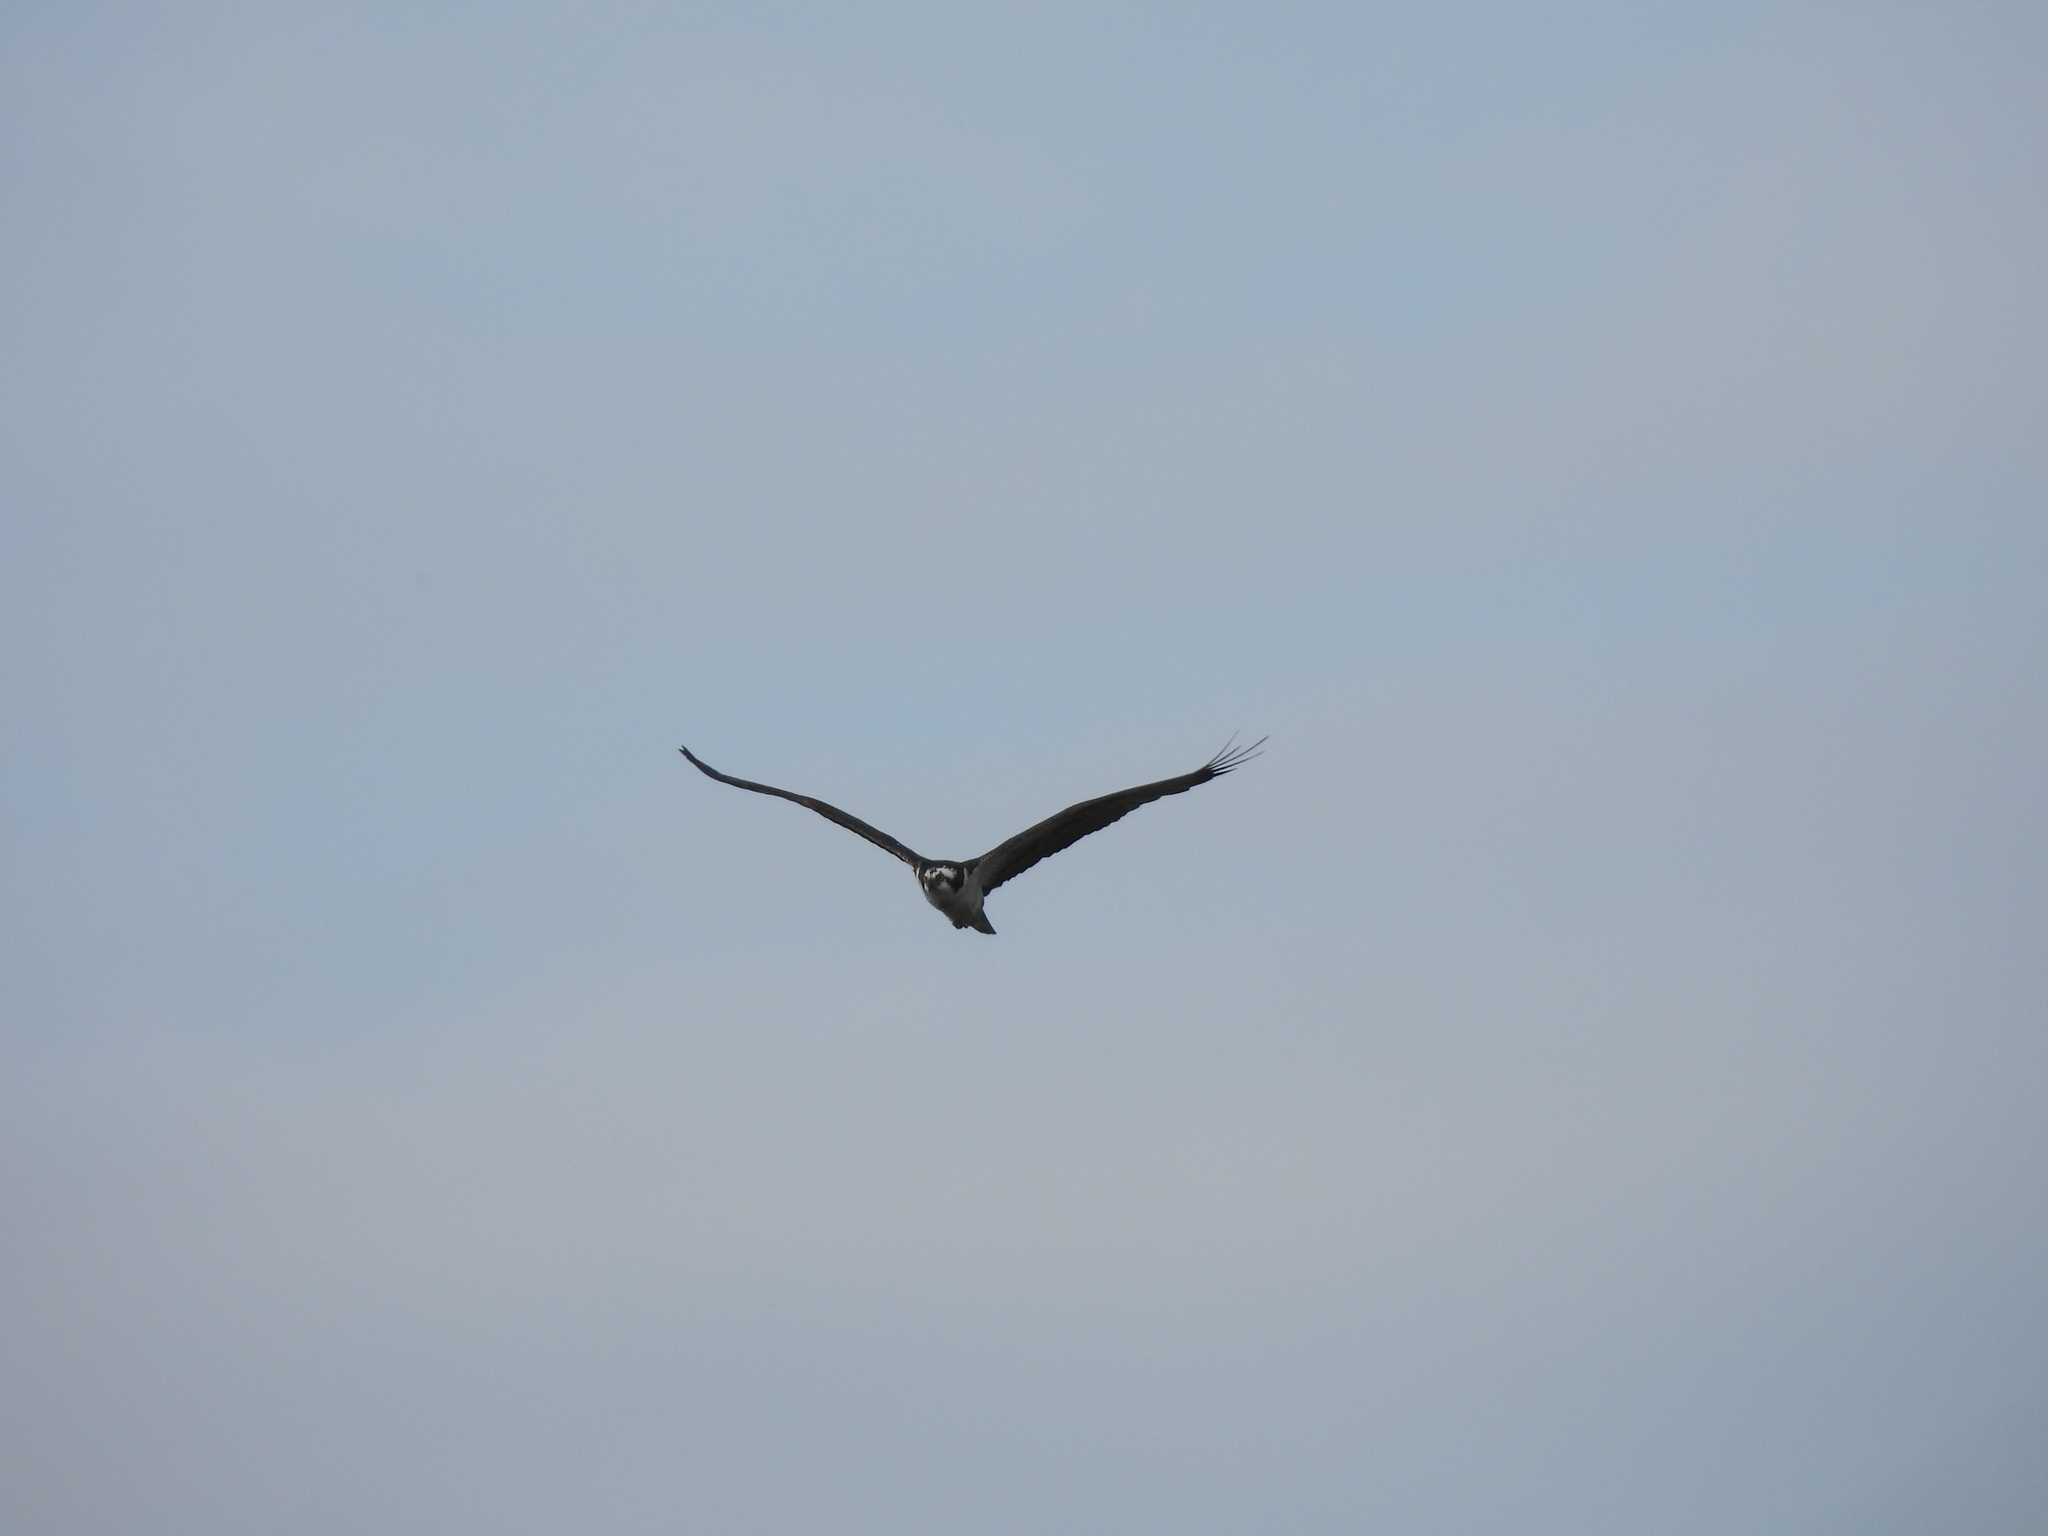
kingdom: Animalia
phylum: Chordata
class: Aves
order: Accipitriformes
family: Pandionidae
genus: Pandion
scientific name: Pandion haliaetus
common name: Osprey
